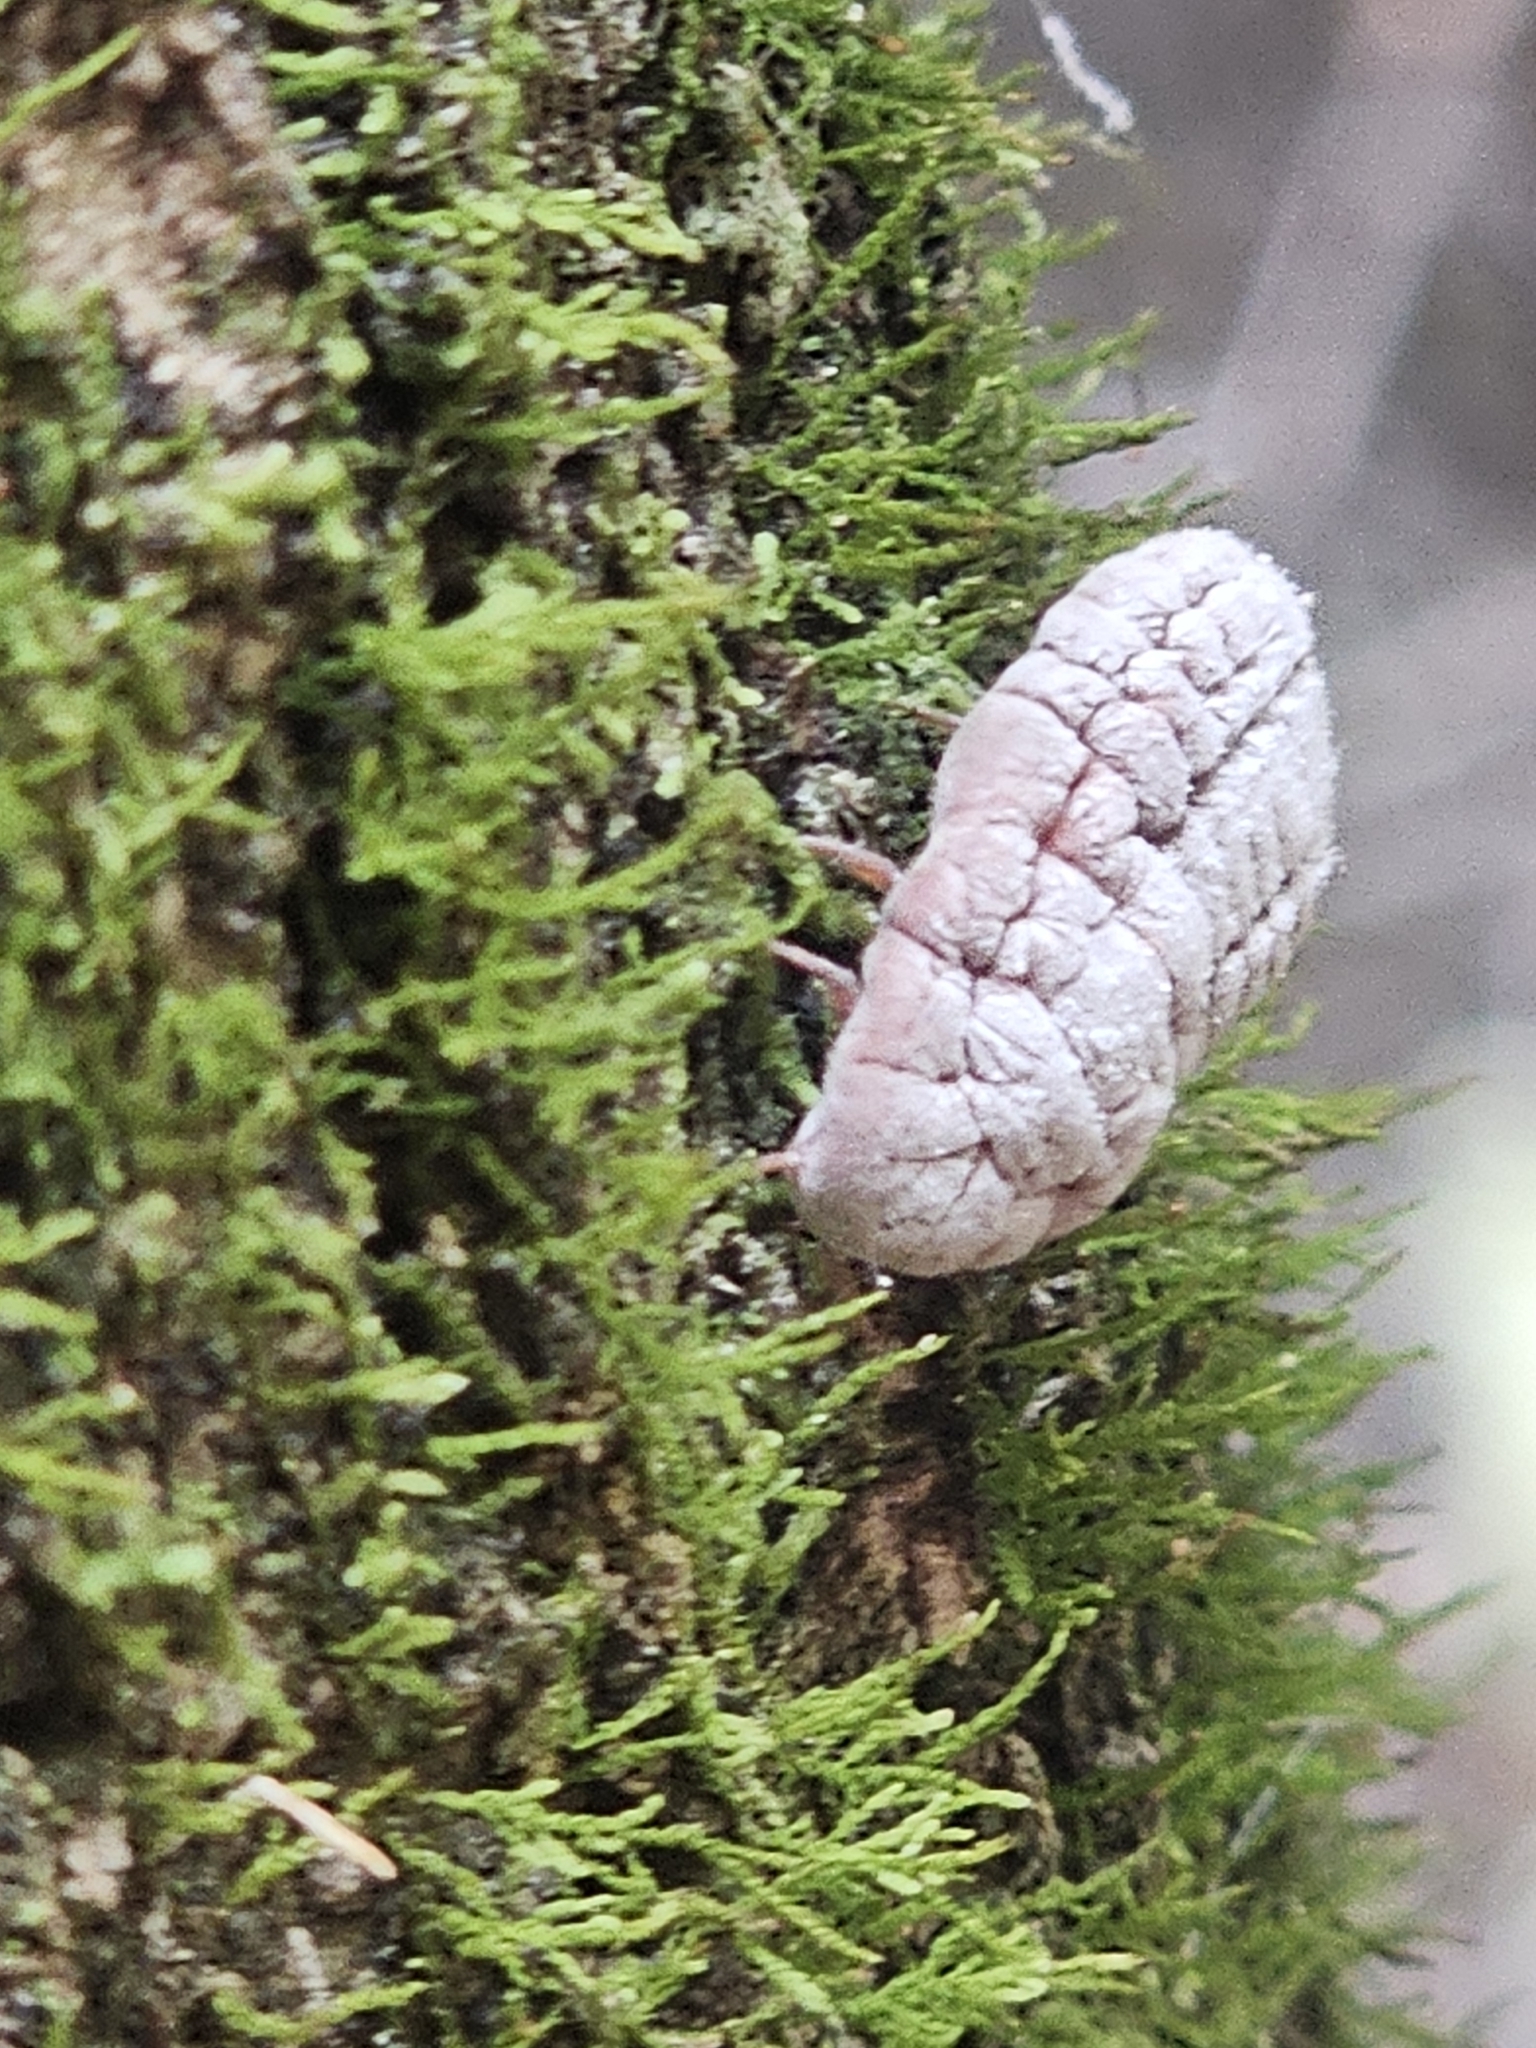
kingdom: Animalia
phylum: Arthropoda
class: Insecta
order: Hemiptera
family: Margarodidae
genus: Coelostomidia
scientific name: Coelostomidia zealandica
